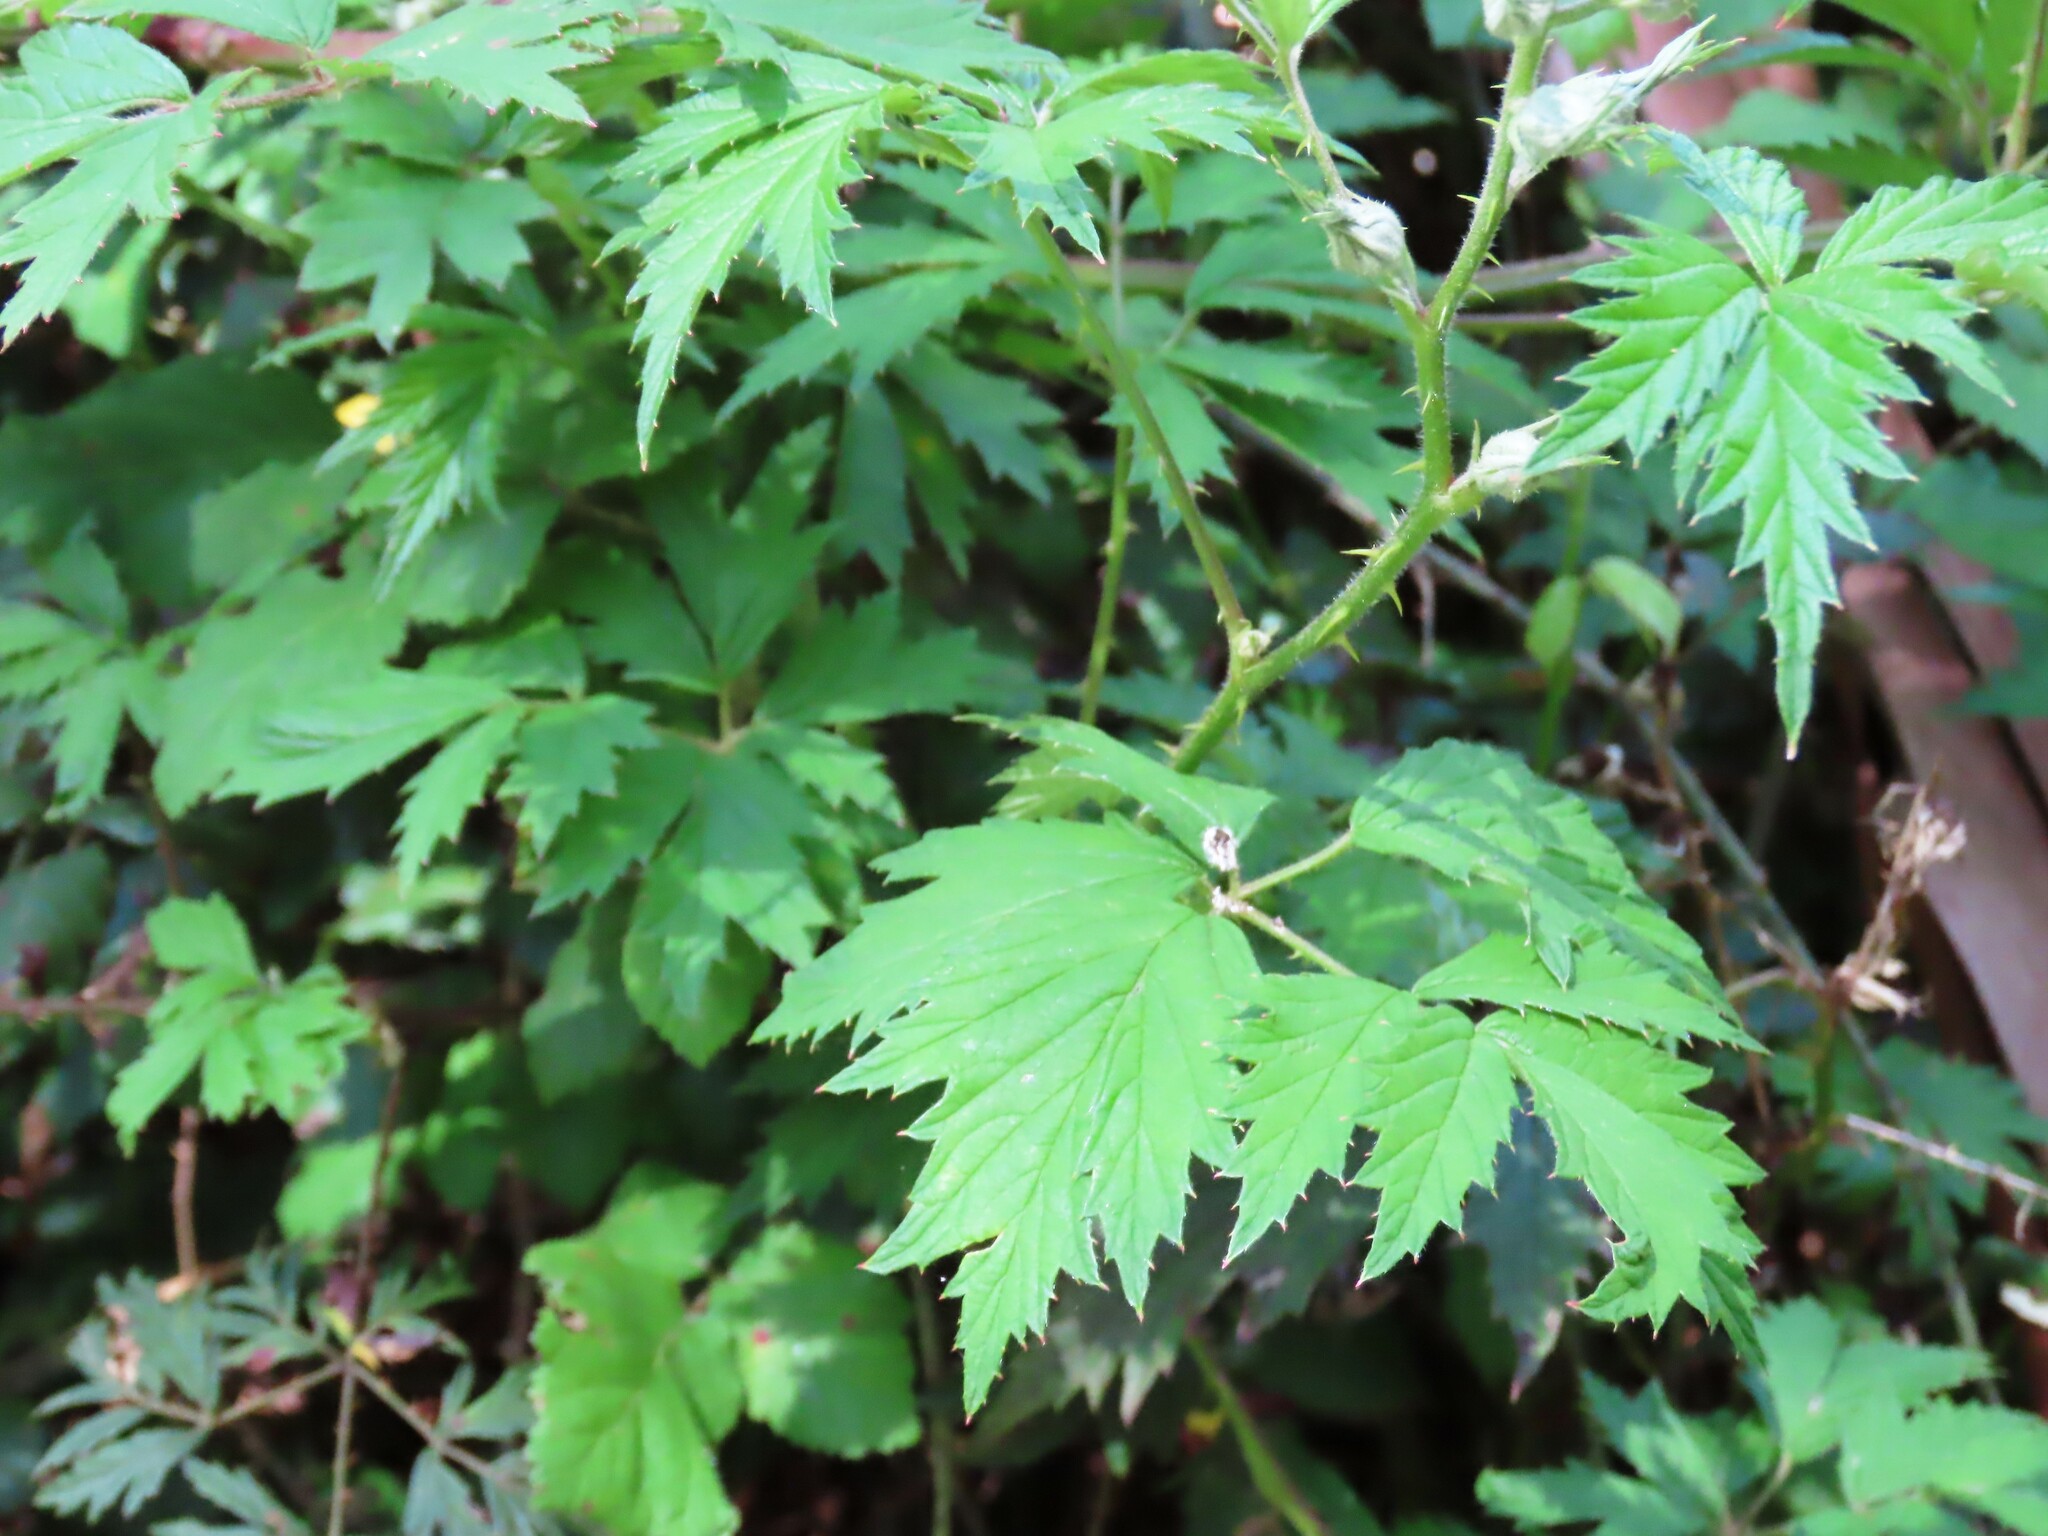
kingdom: Plantae
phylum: Tracheophyta
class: Magnoliopsida
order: Rosales
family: Rosaceae
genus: Rubus
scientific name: Rubus laciniatus
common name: Evergreen blackberry
